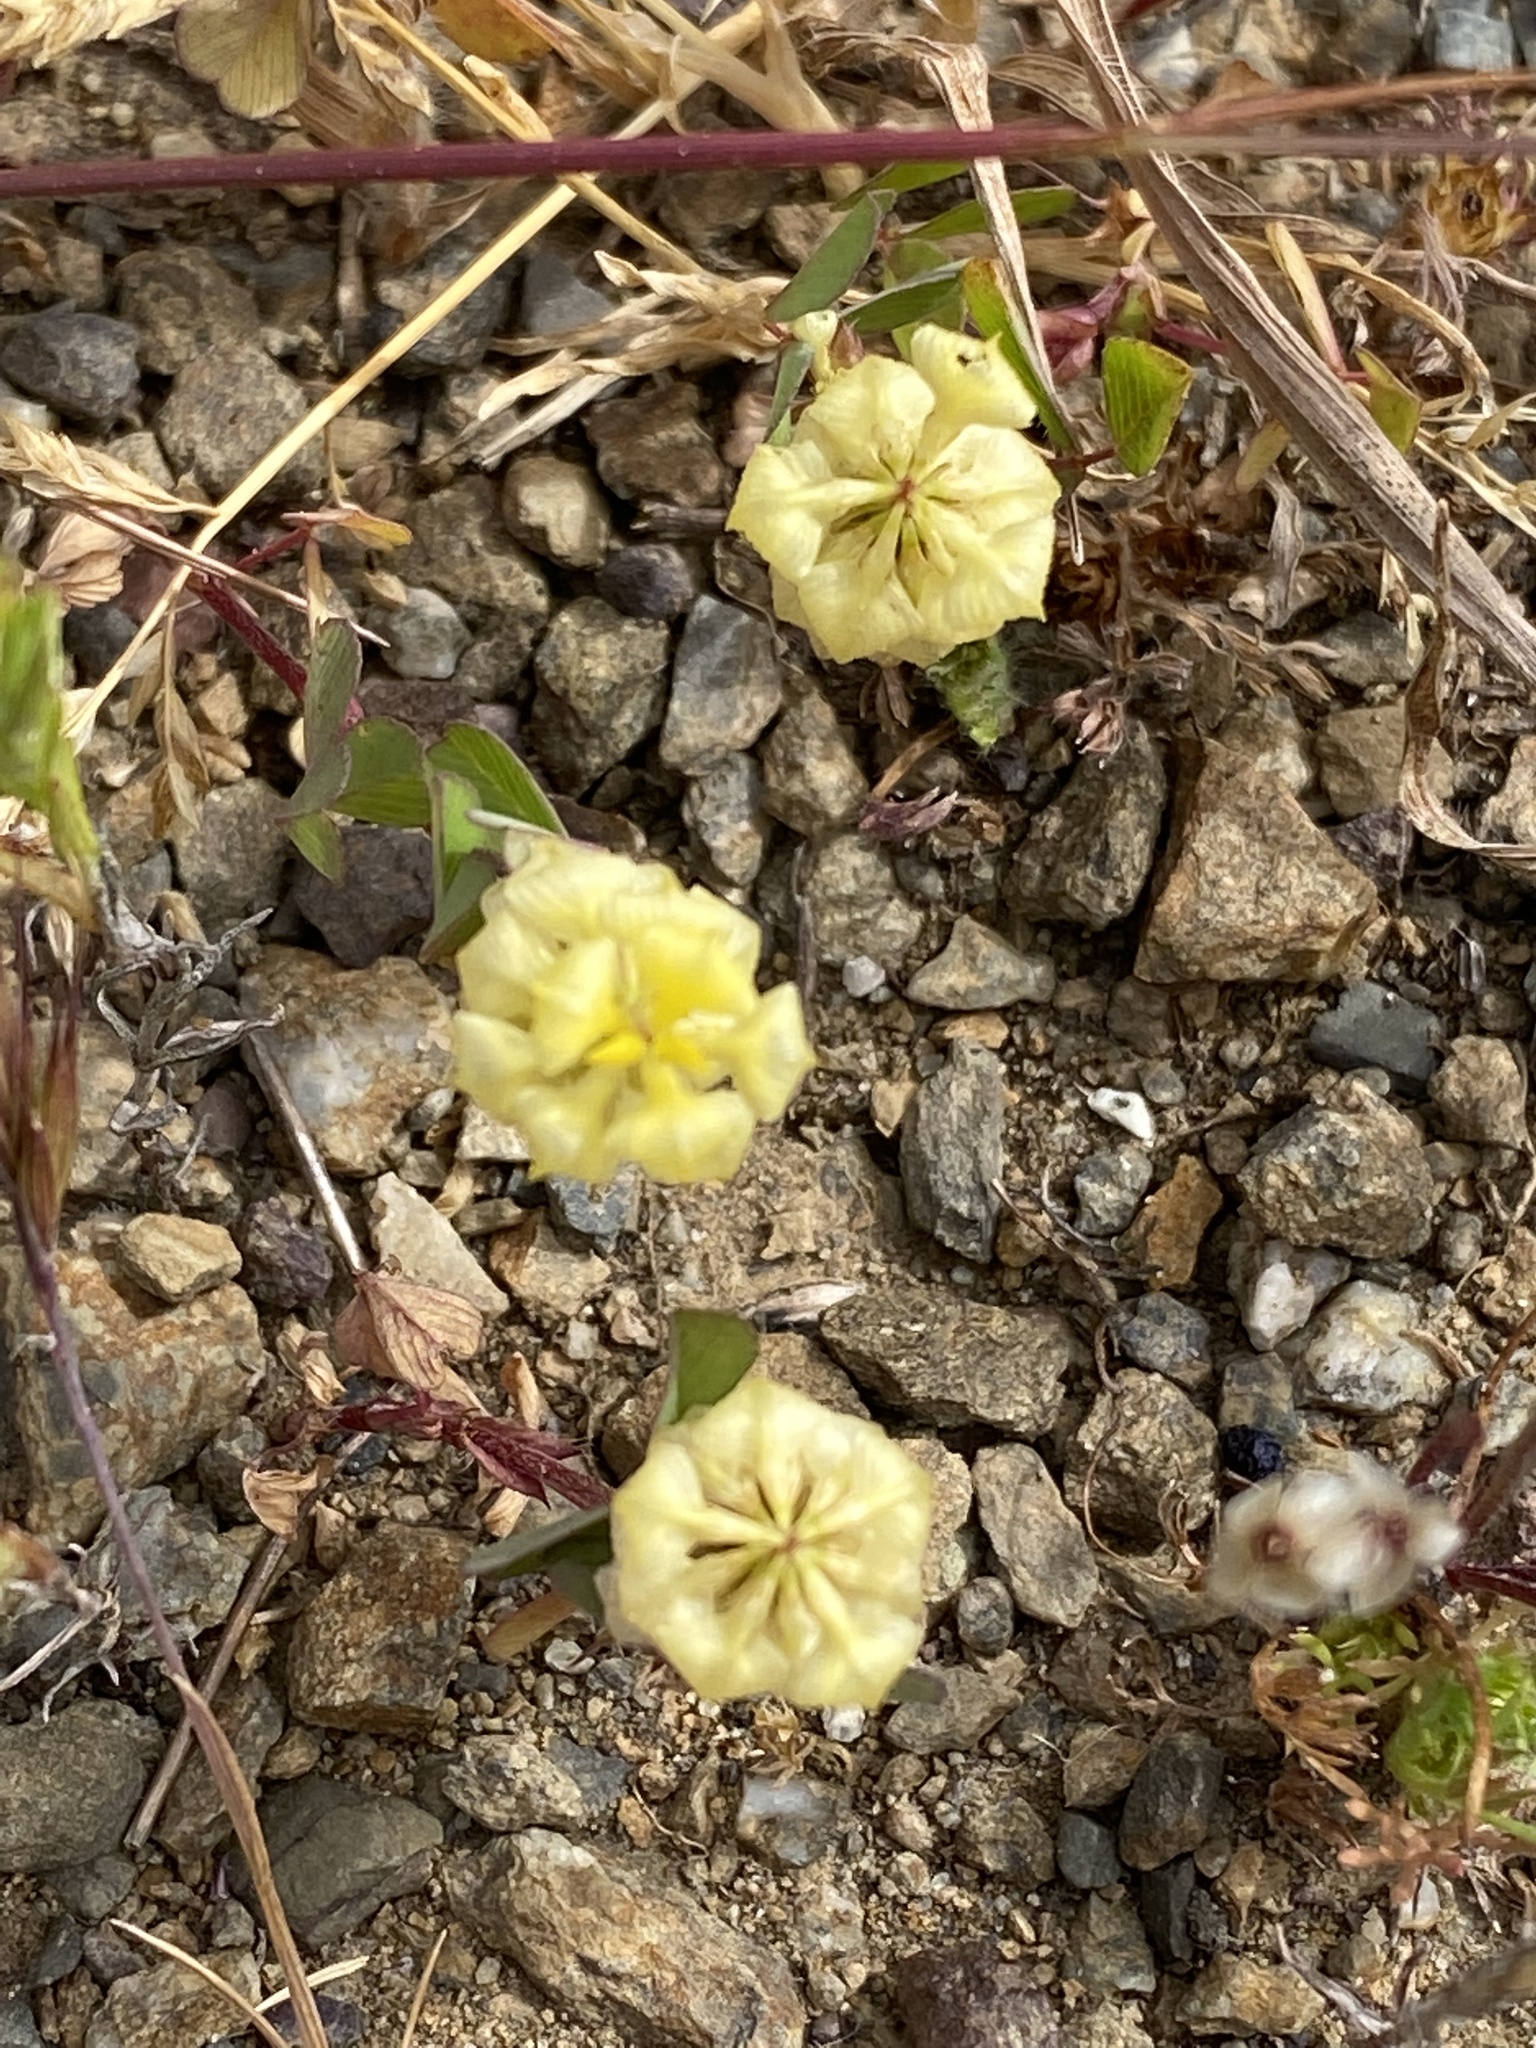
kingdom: Plantae
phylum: Tracheophyta
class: Magnoliopsida
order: Fabales
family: Fabaceae
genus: Trifolium
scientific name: Trifolium campestre
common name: Field clover
